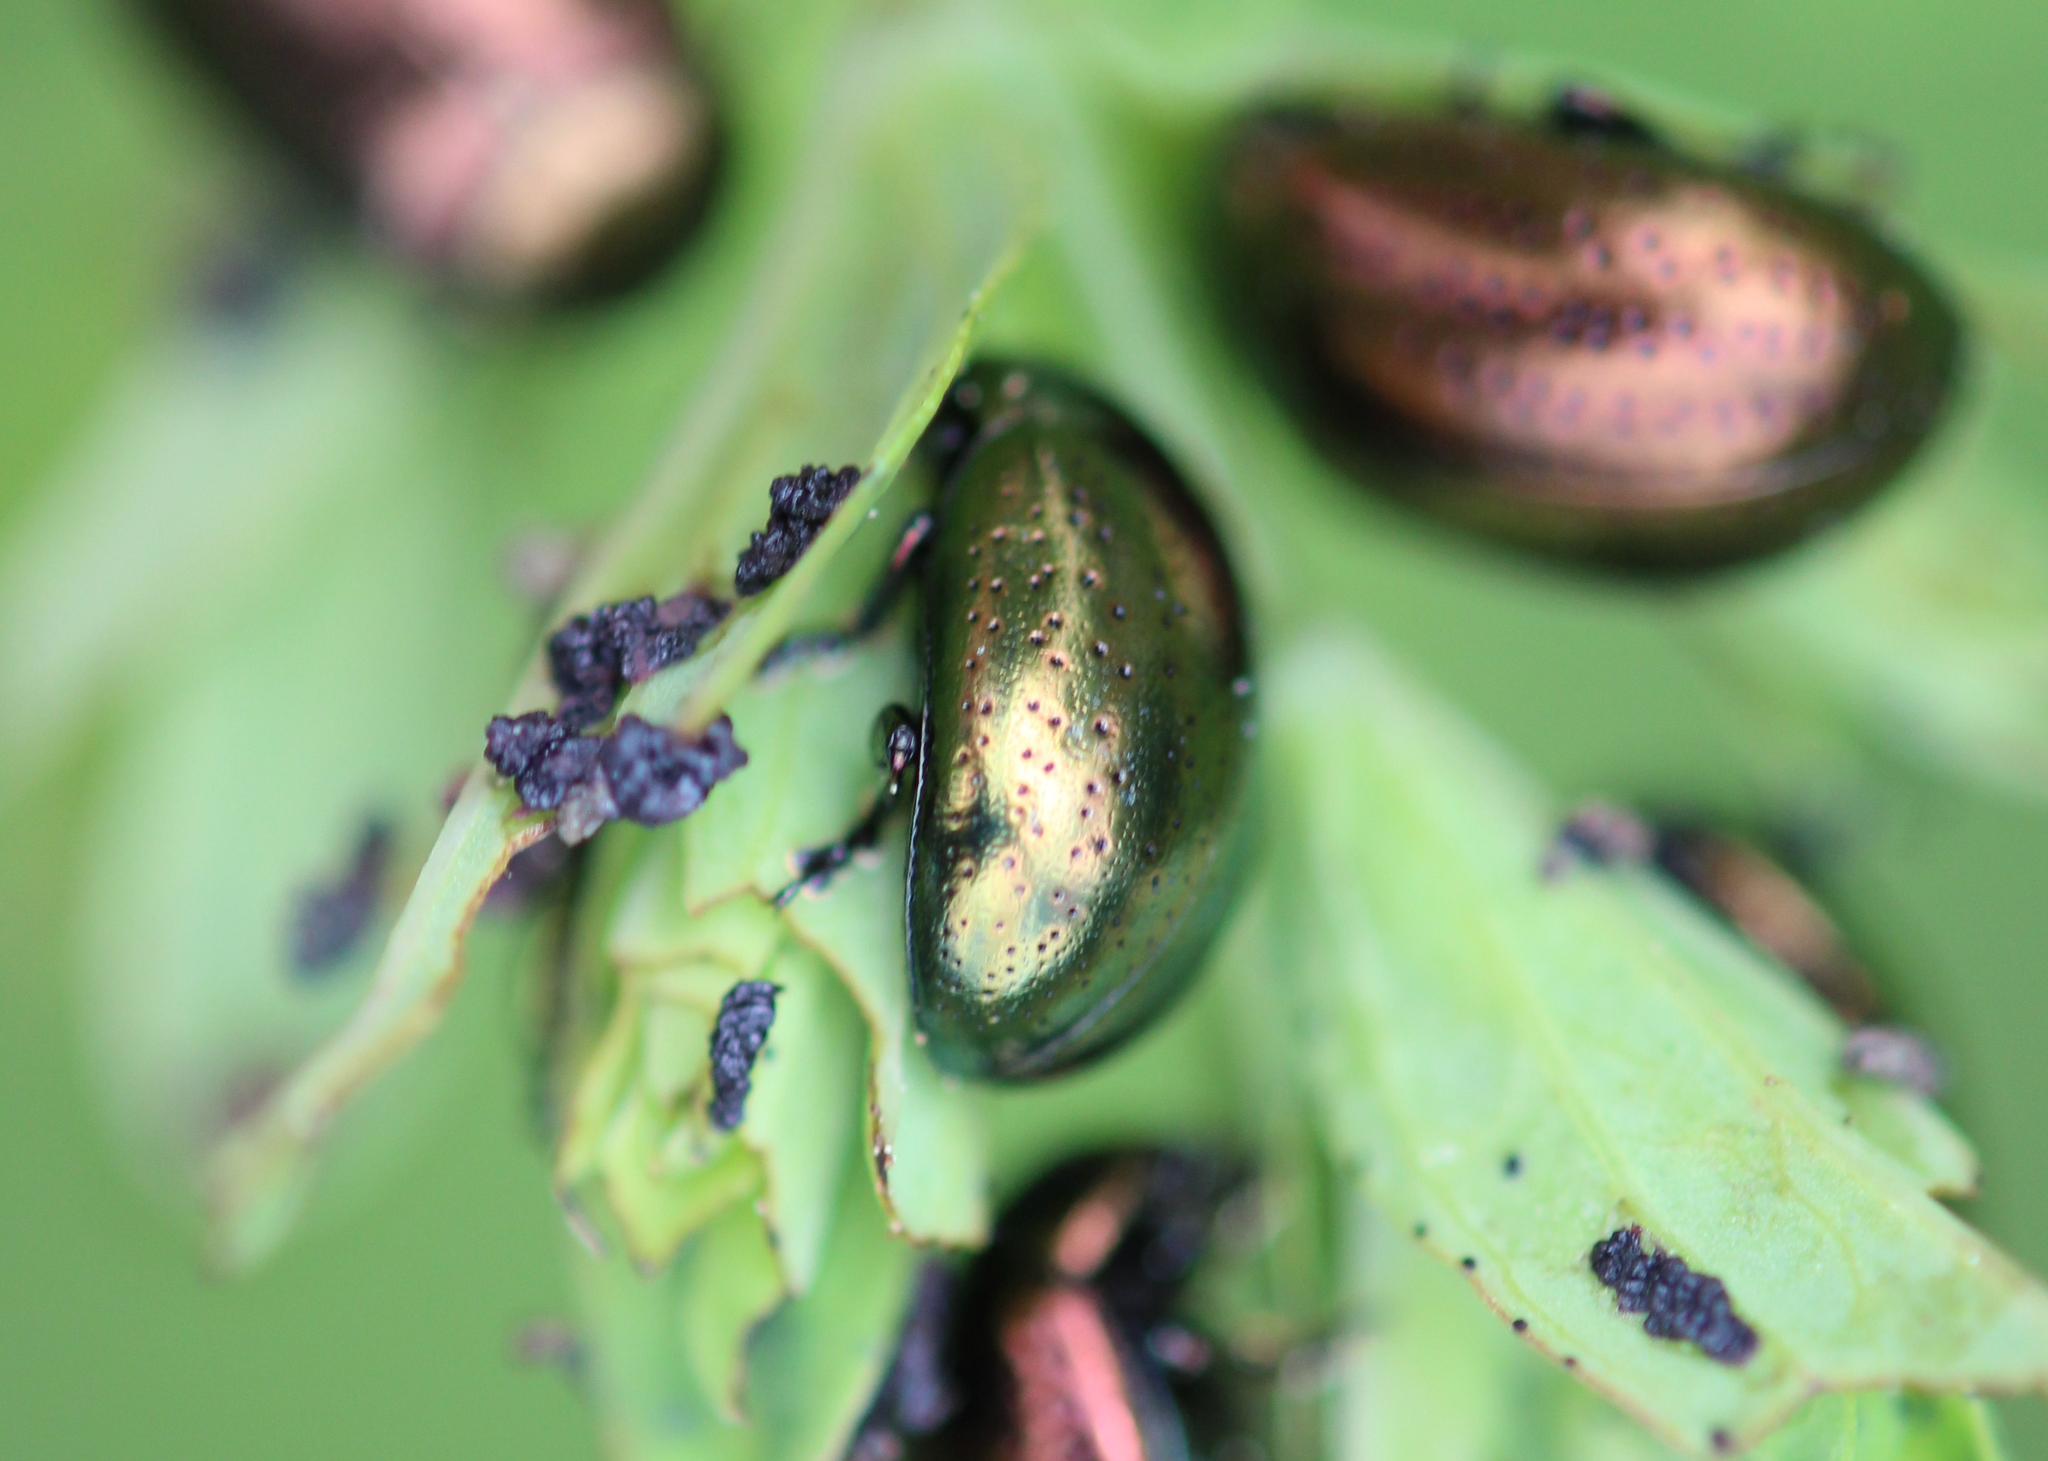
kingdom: Animalia
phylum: Arthropoda
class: Insecta
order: Coleoptera
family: Chrysomelidae
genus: Chrysolina
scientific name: Chrysolina hyperici
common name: St. johnswort beetle
